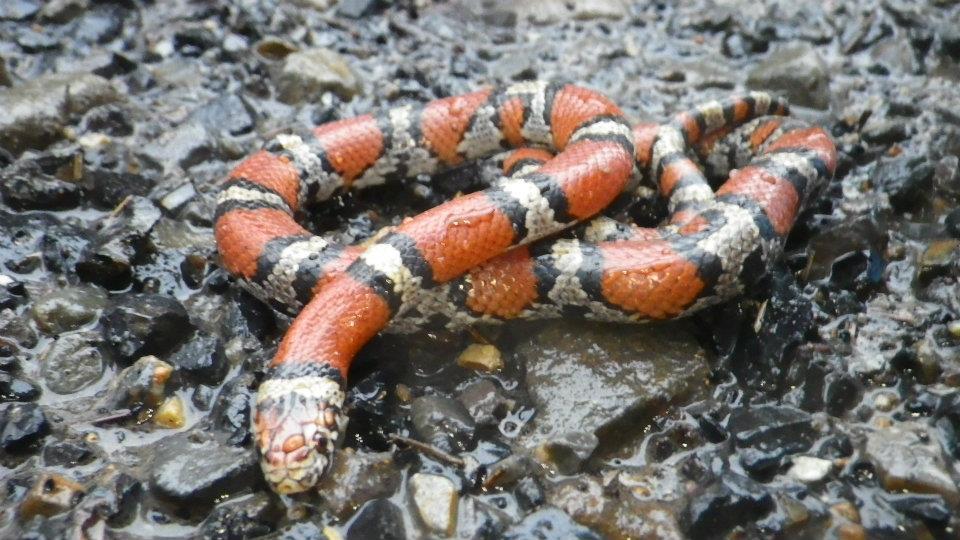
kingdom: Animalia
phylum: Chordata
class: Squamata
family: Colubridae
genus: Lampropeltis
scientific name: Lampropeltis gentilis
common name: Central plains milksnake
